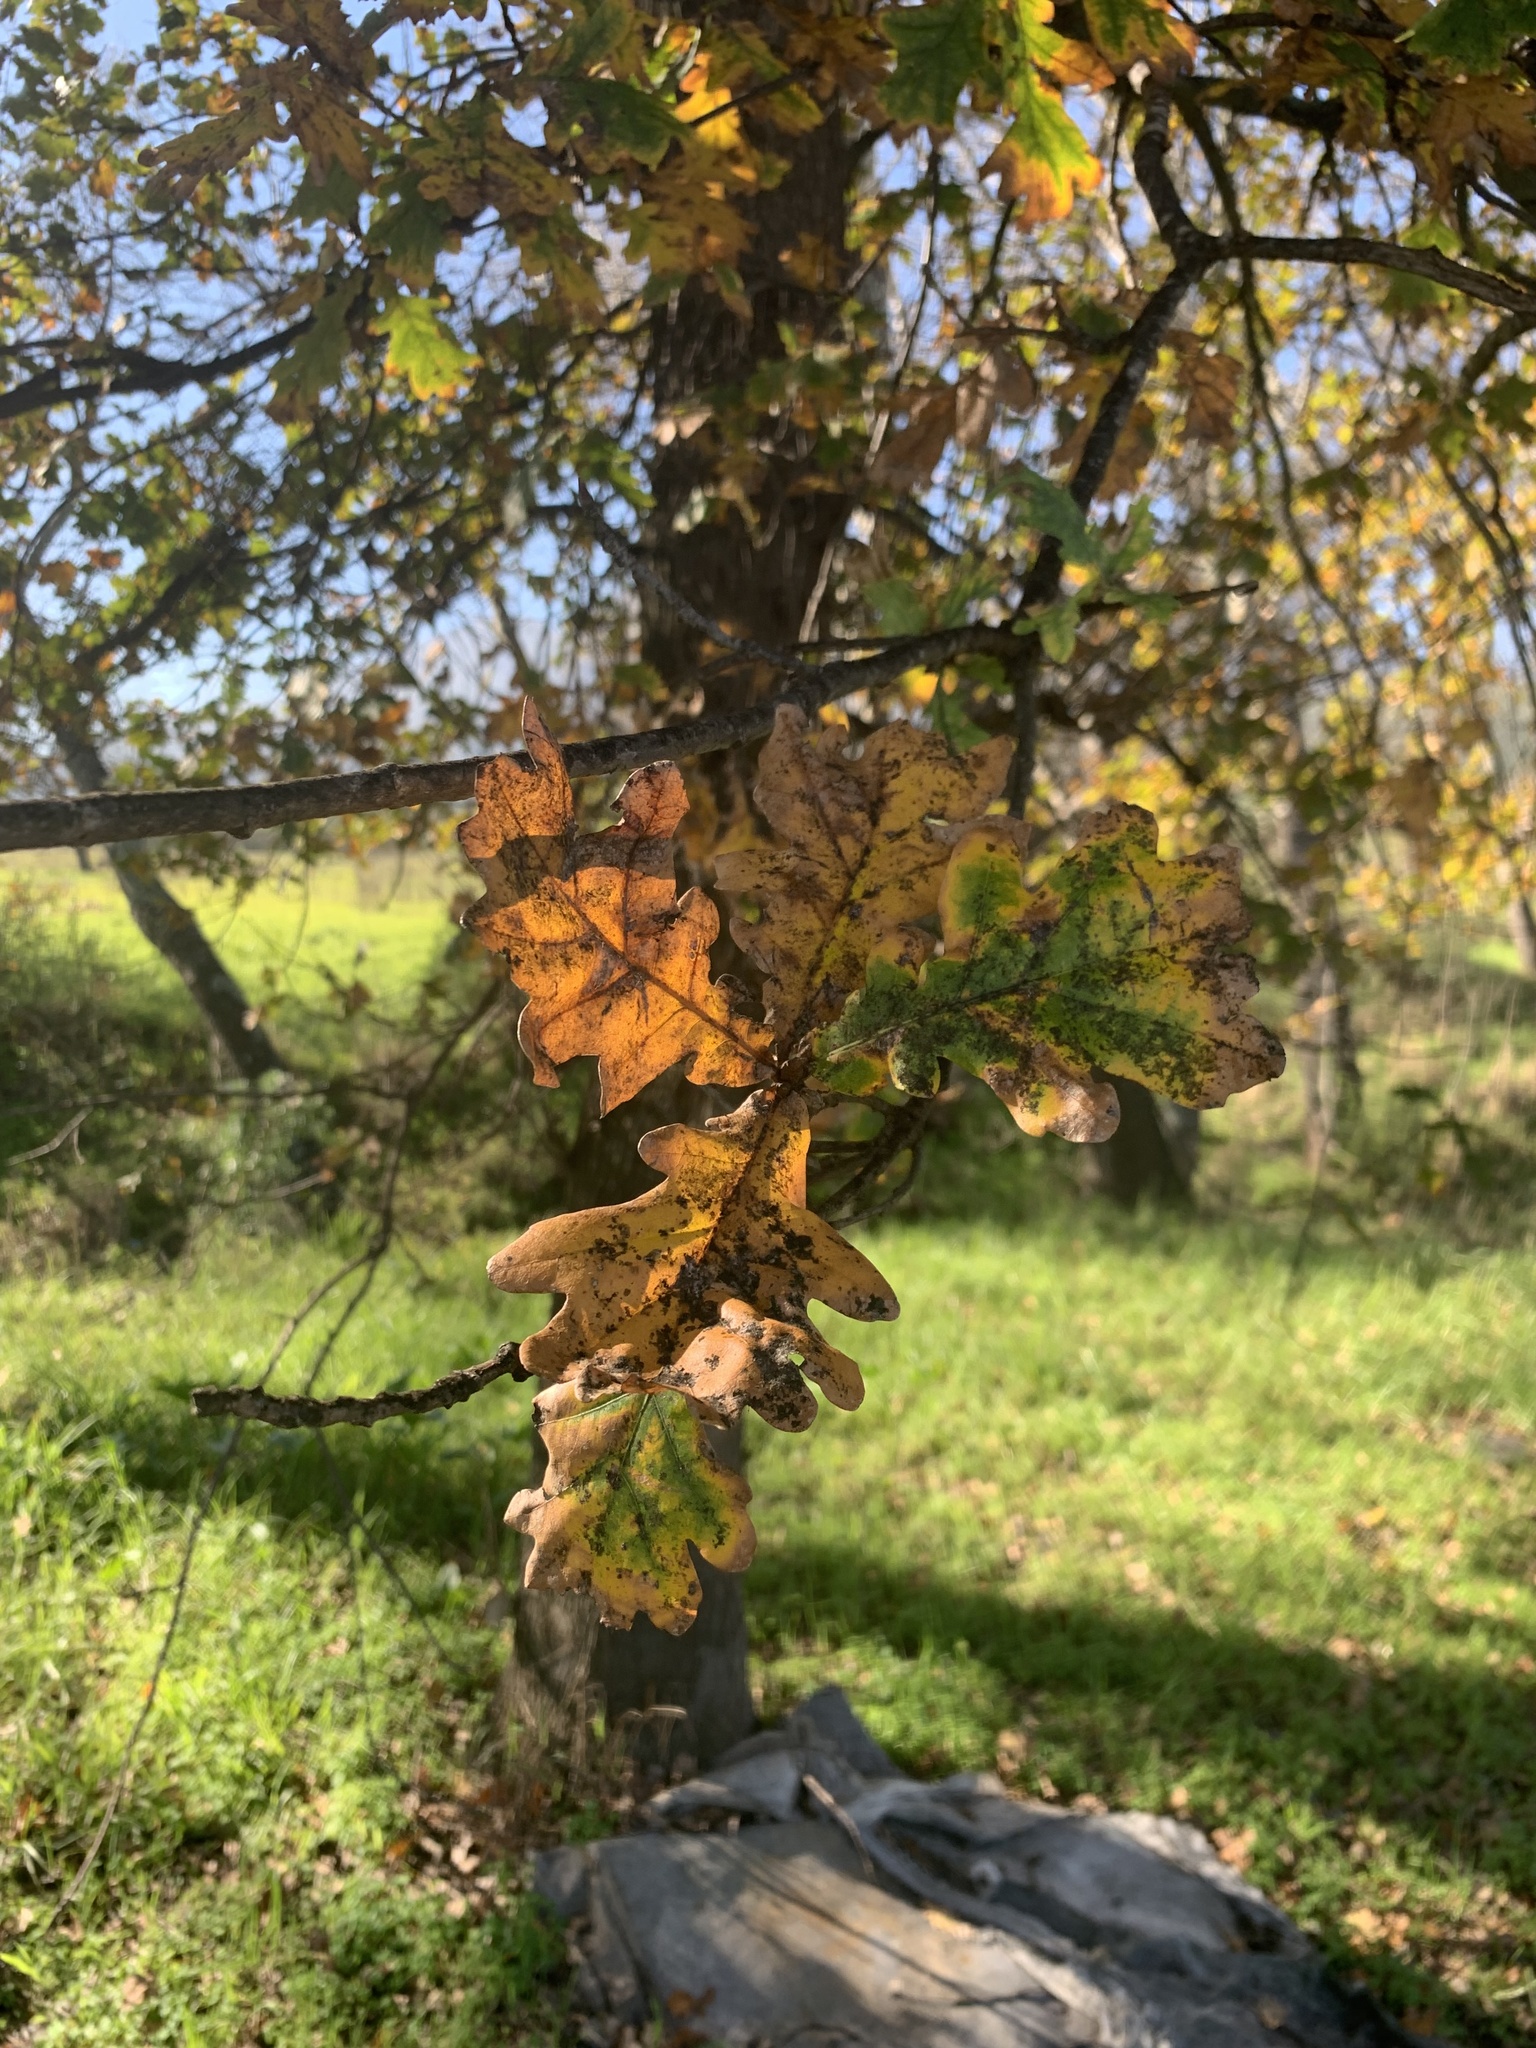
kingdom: Plantae
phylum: Tracheophyta
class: Magnoliopsida
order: Fagales
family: Fagaceae
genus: Quercus
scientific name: Quercus robur
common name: Pedunculate oak
